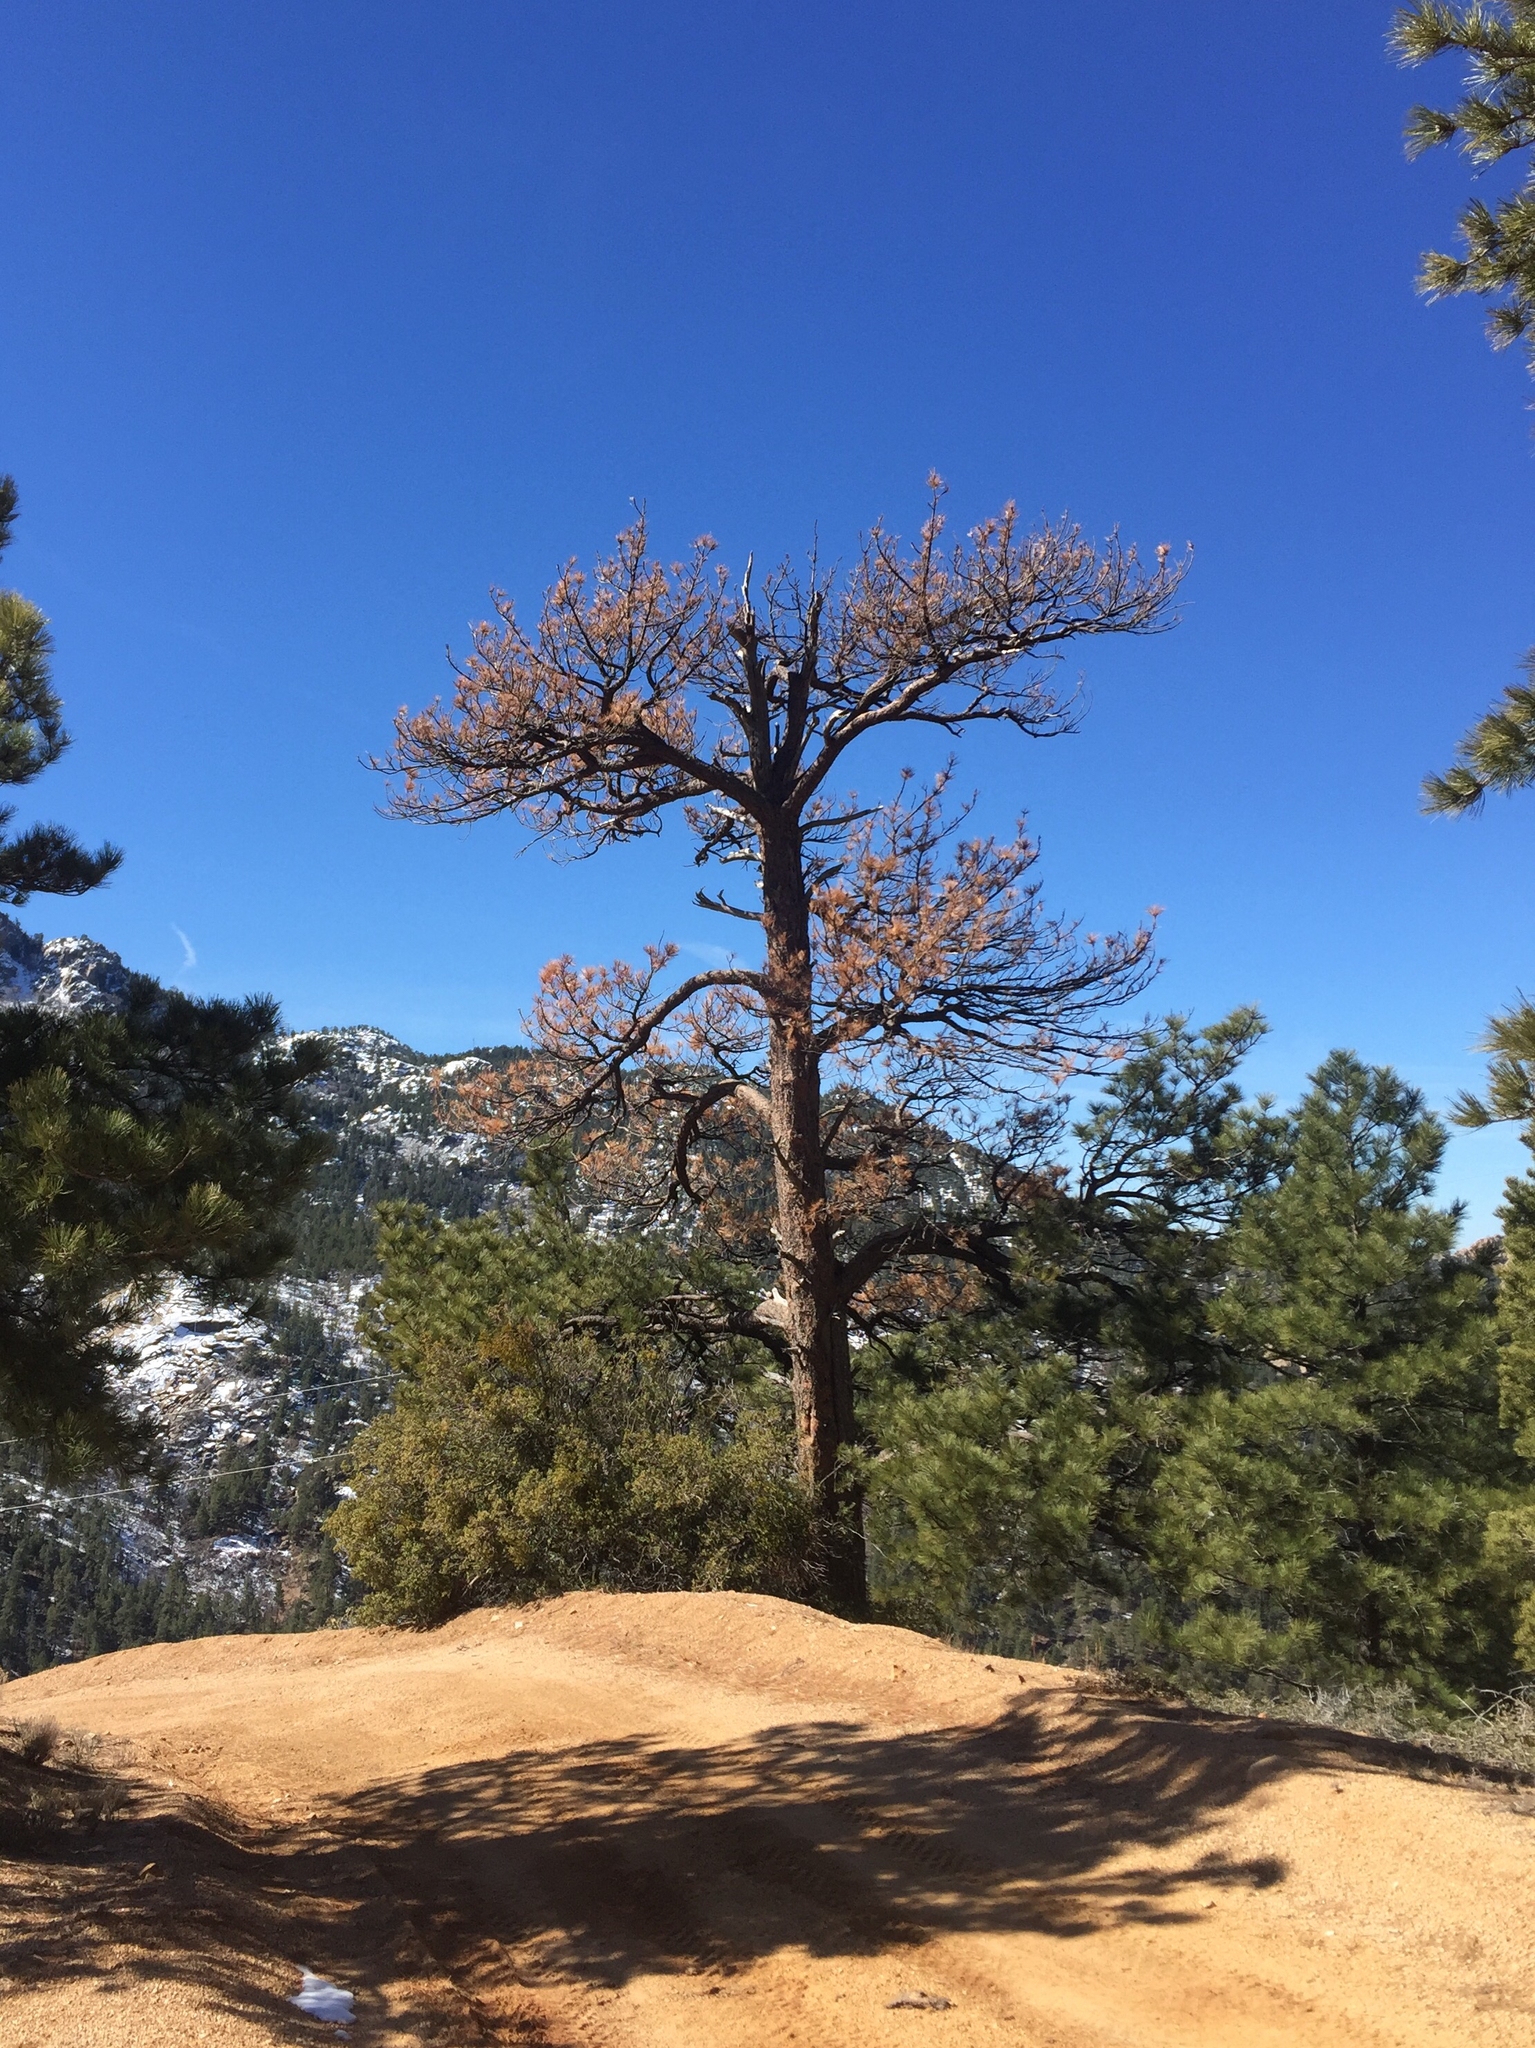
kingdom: Plantae
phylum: Tracheophyta
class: Pinopsida
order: Pinales
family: Pinaceae
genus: Pinus
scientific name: Pinus ponderosa
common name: Western yellow-pine
